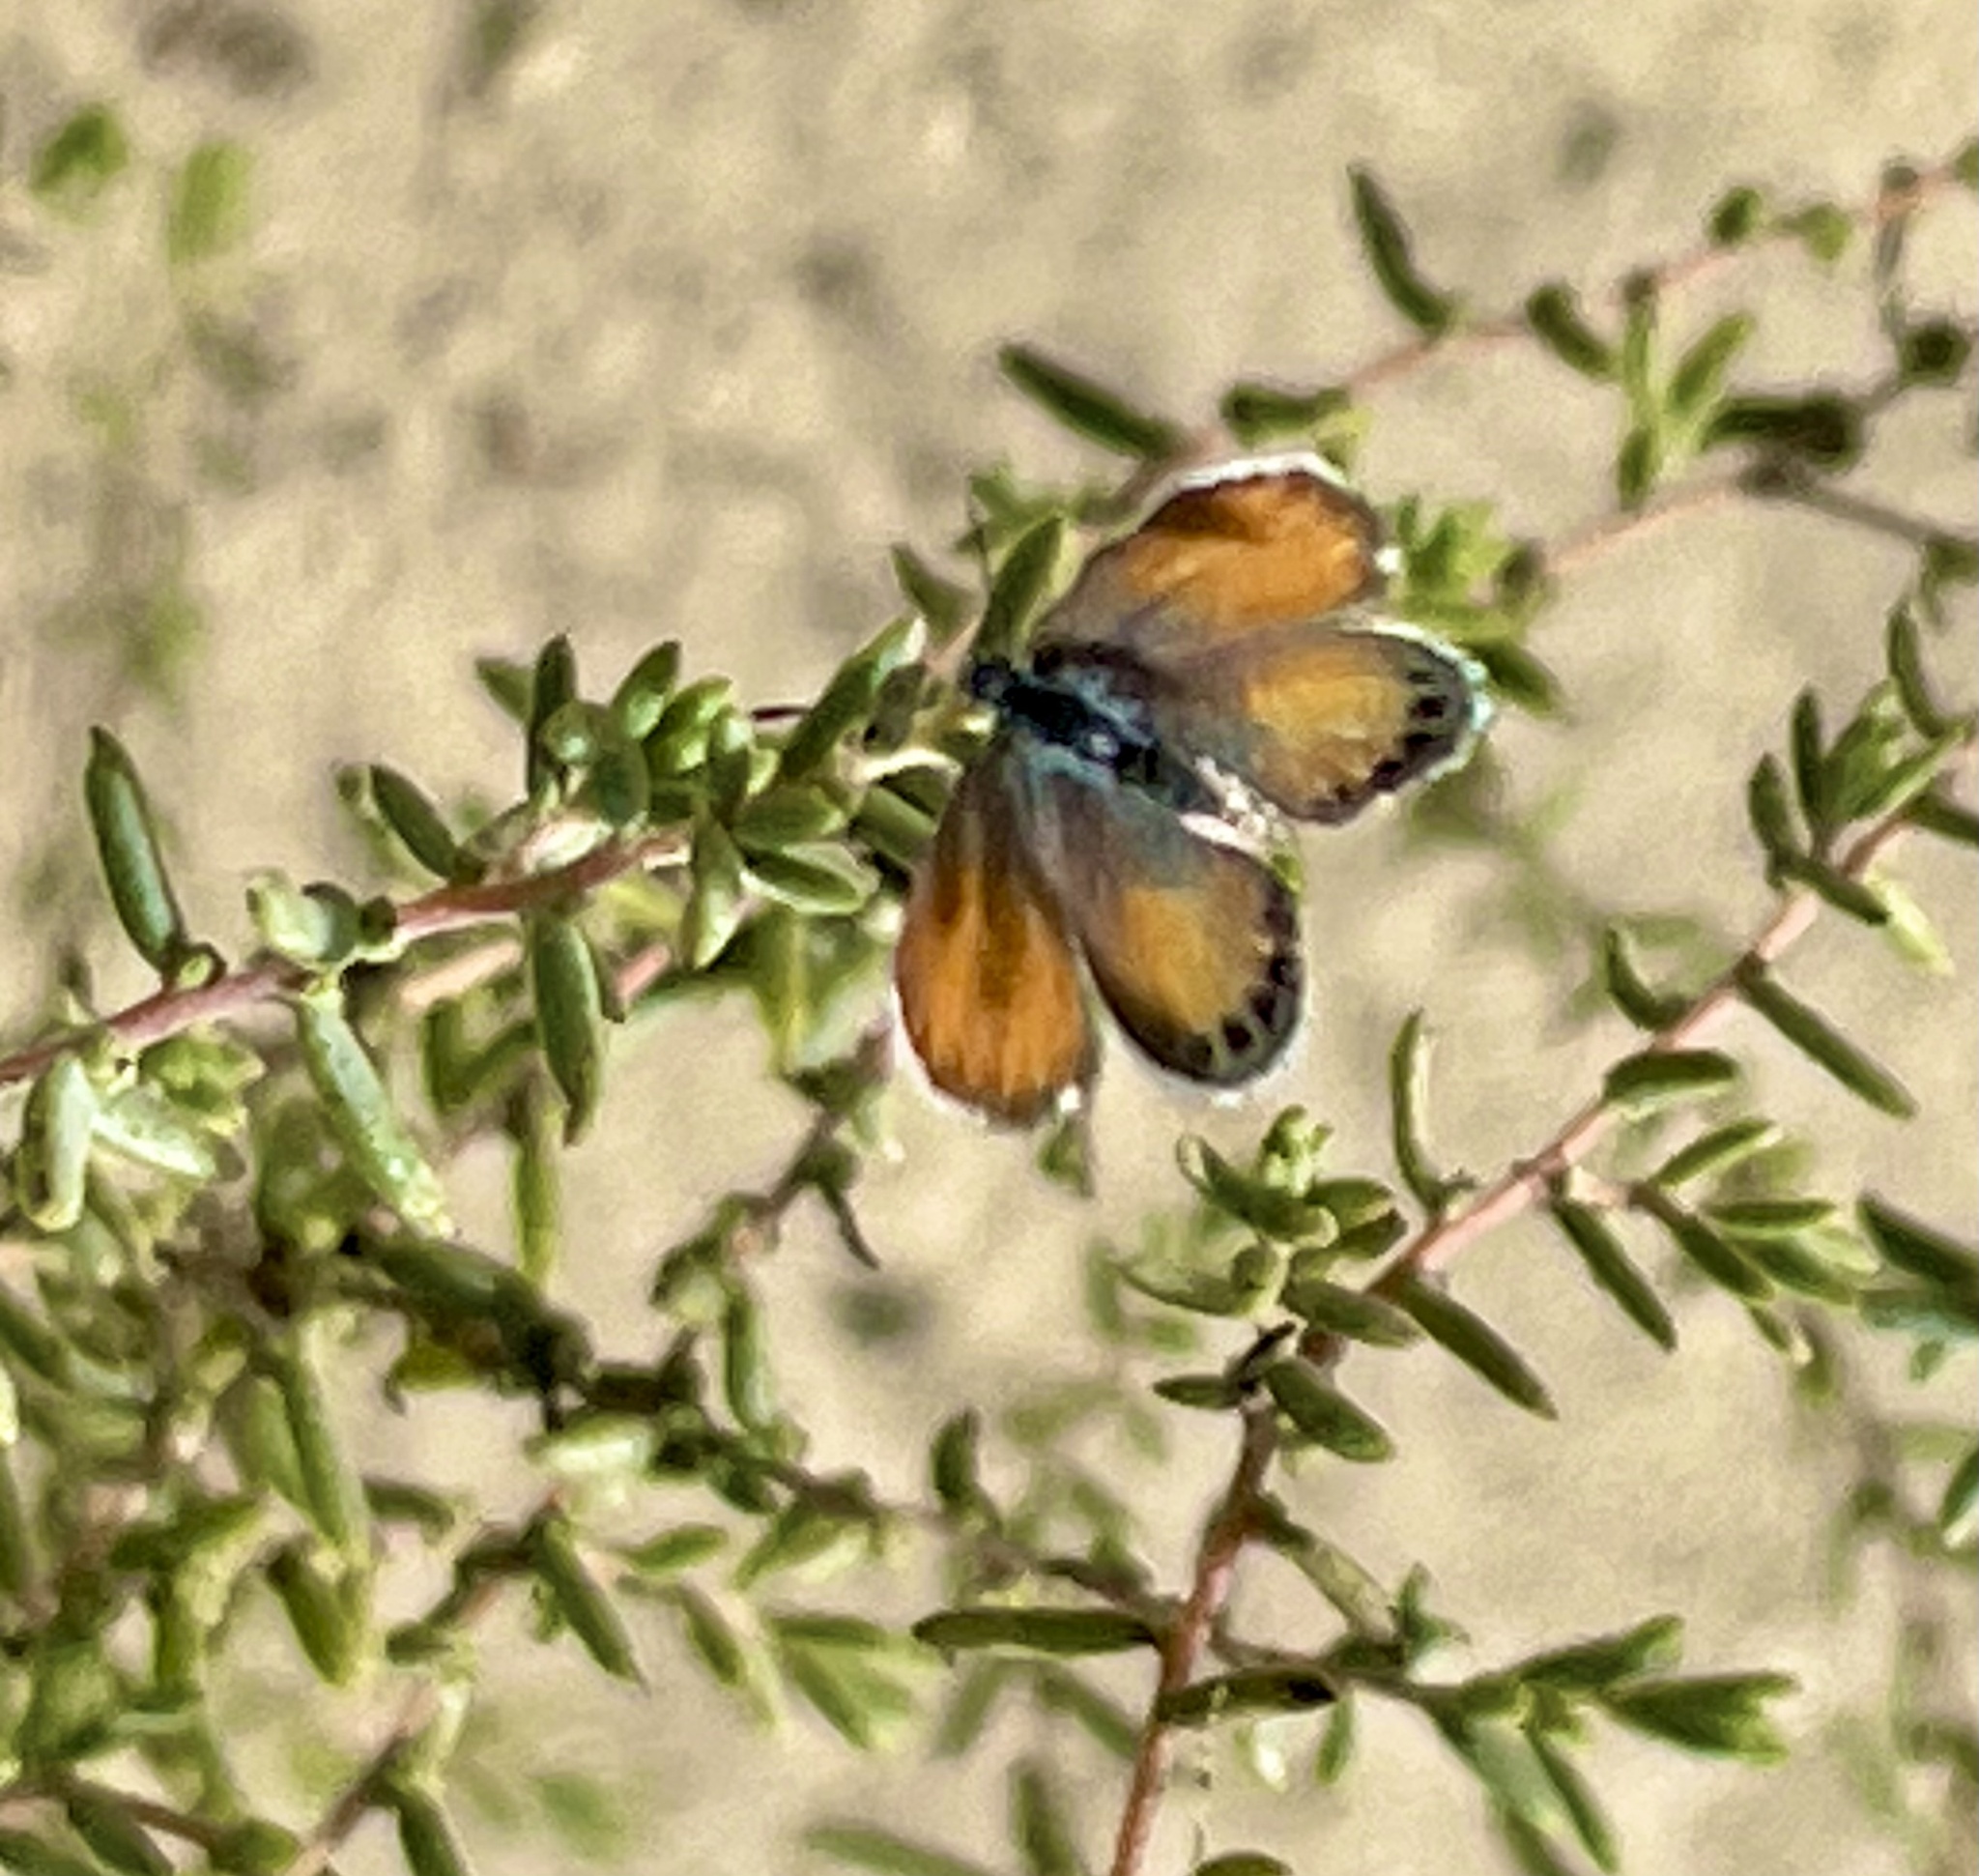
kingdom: Animalia
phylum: Arthropoda
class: Insecta
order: Lepidoptera
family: Lycaenidae
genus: Brephidium
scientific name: Brephidium exilis
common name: Pygmy blue
